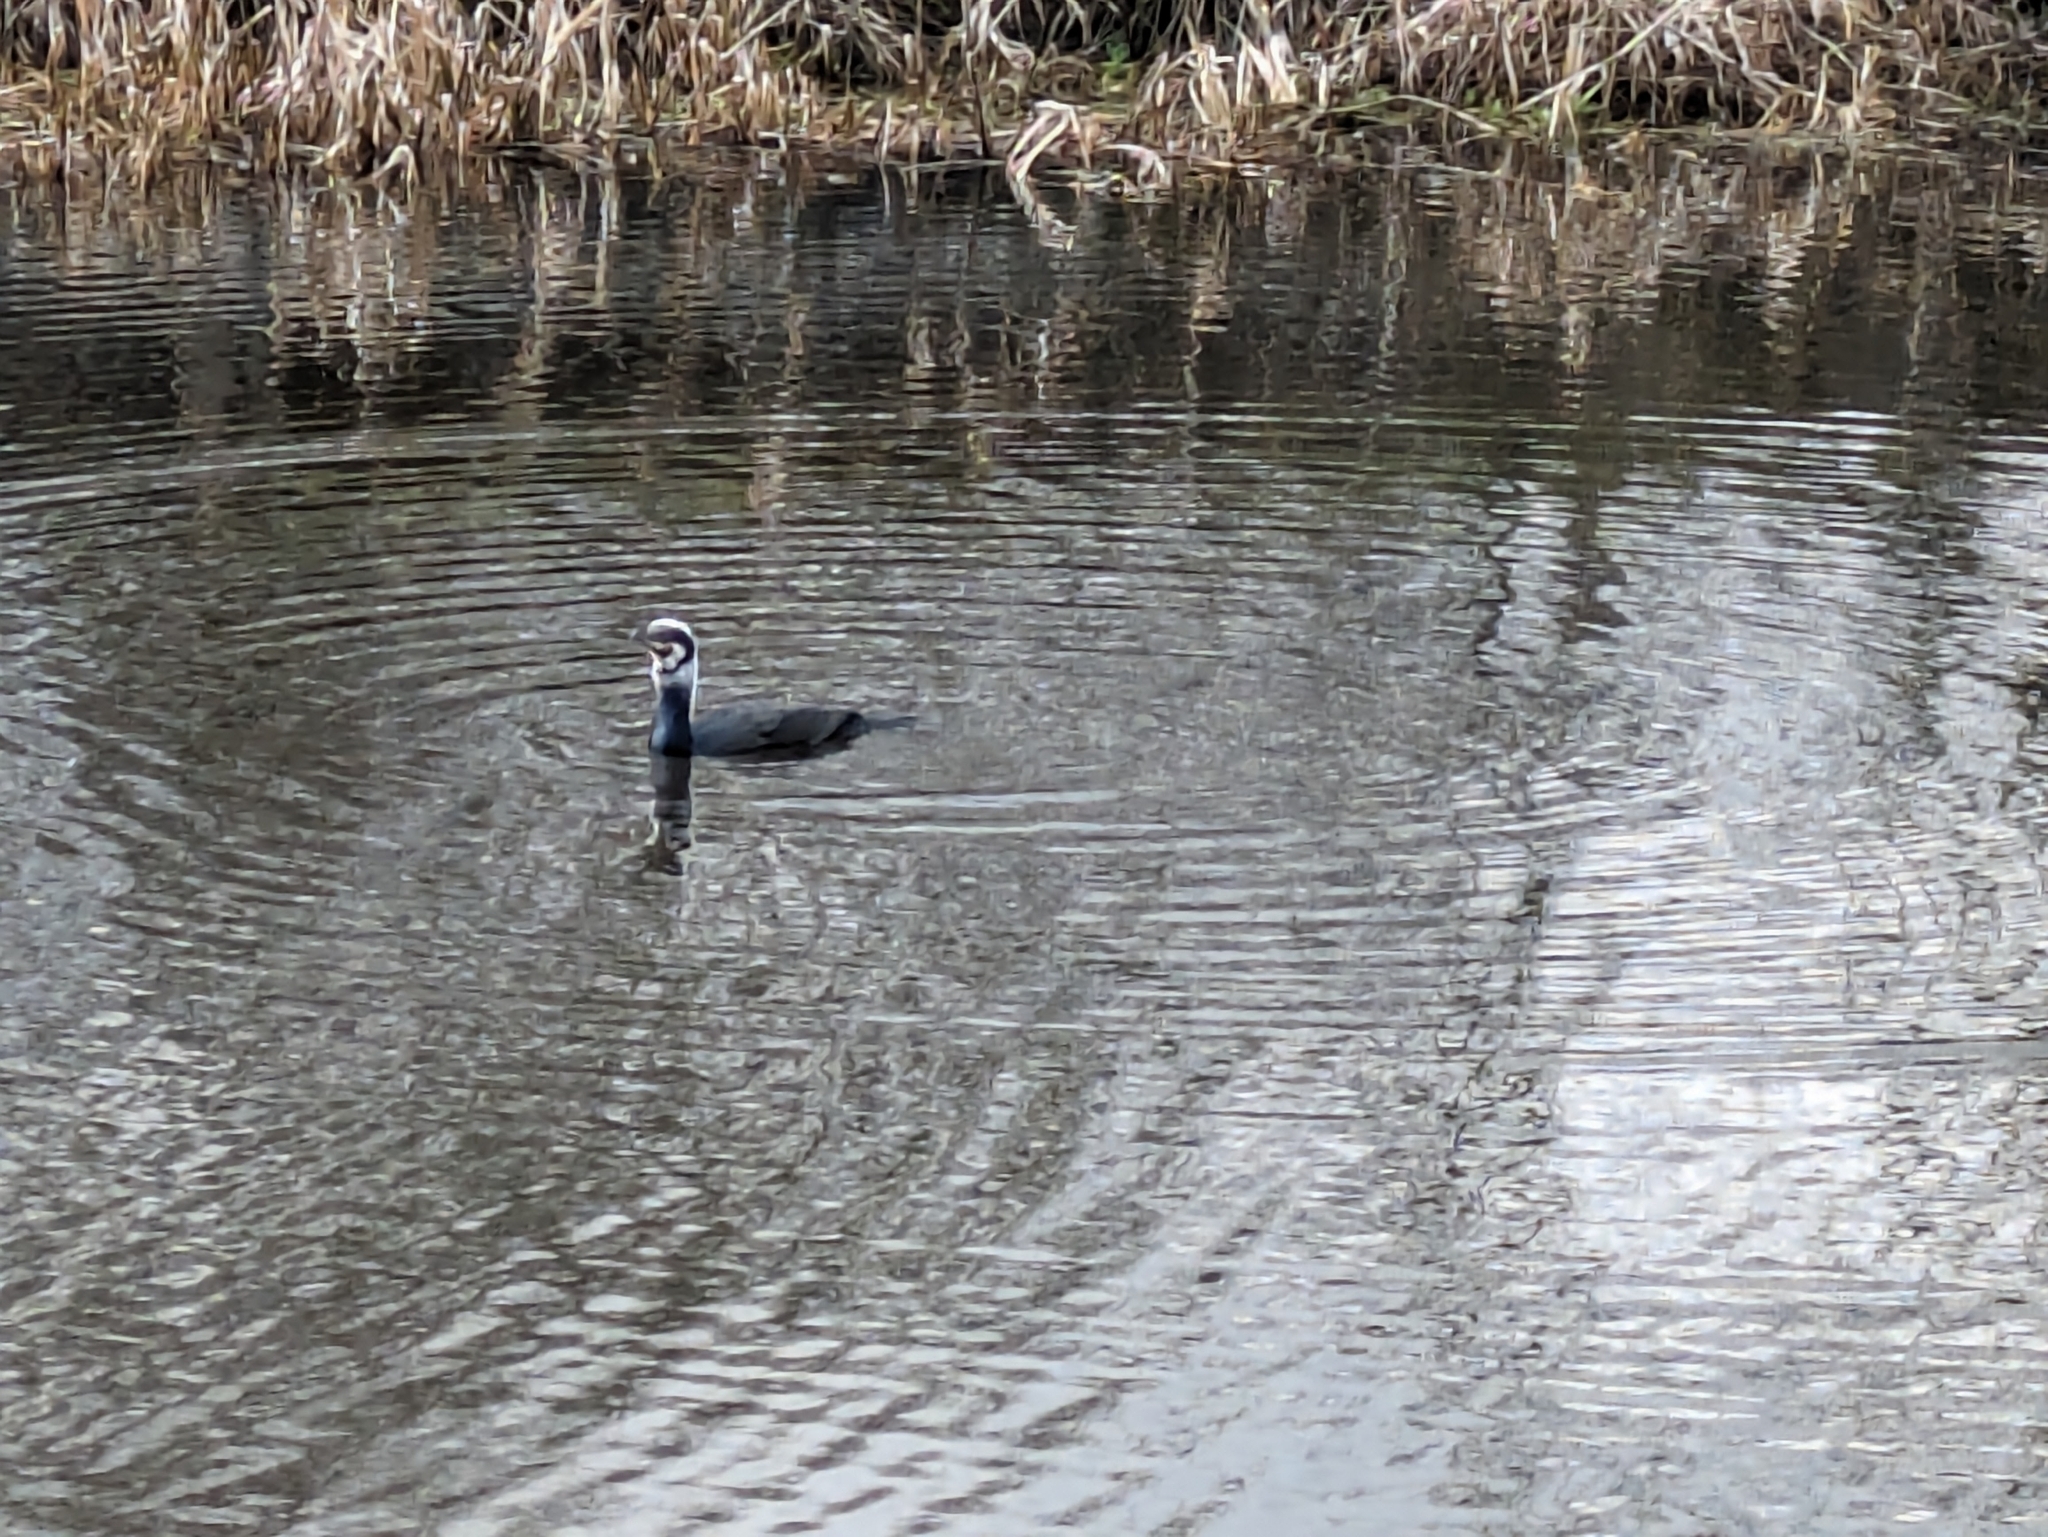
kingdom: Animalia
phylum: Chordata
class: Aves
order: Suliformes
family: Phalacrocoracidae
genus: Phalacrocorax
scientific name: Phalacrocorax carbo
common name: Great cormorant
